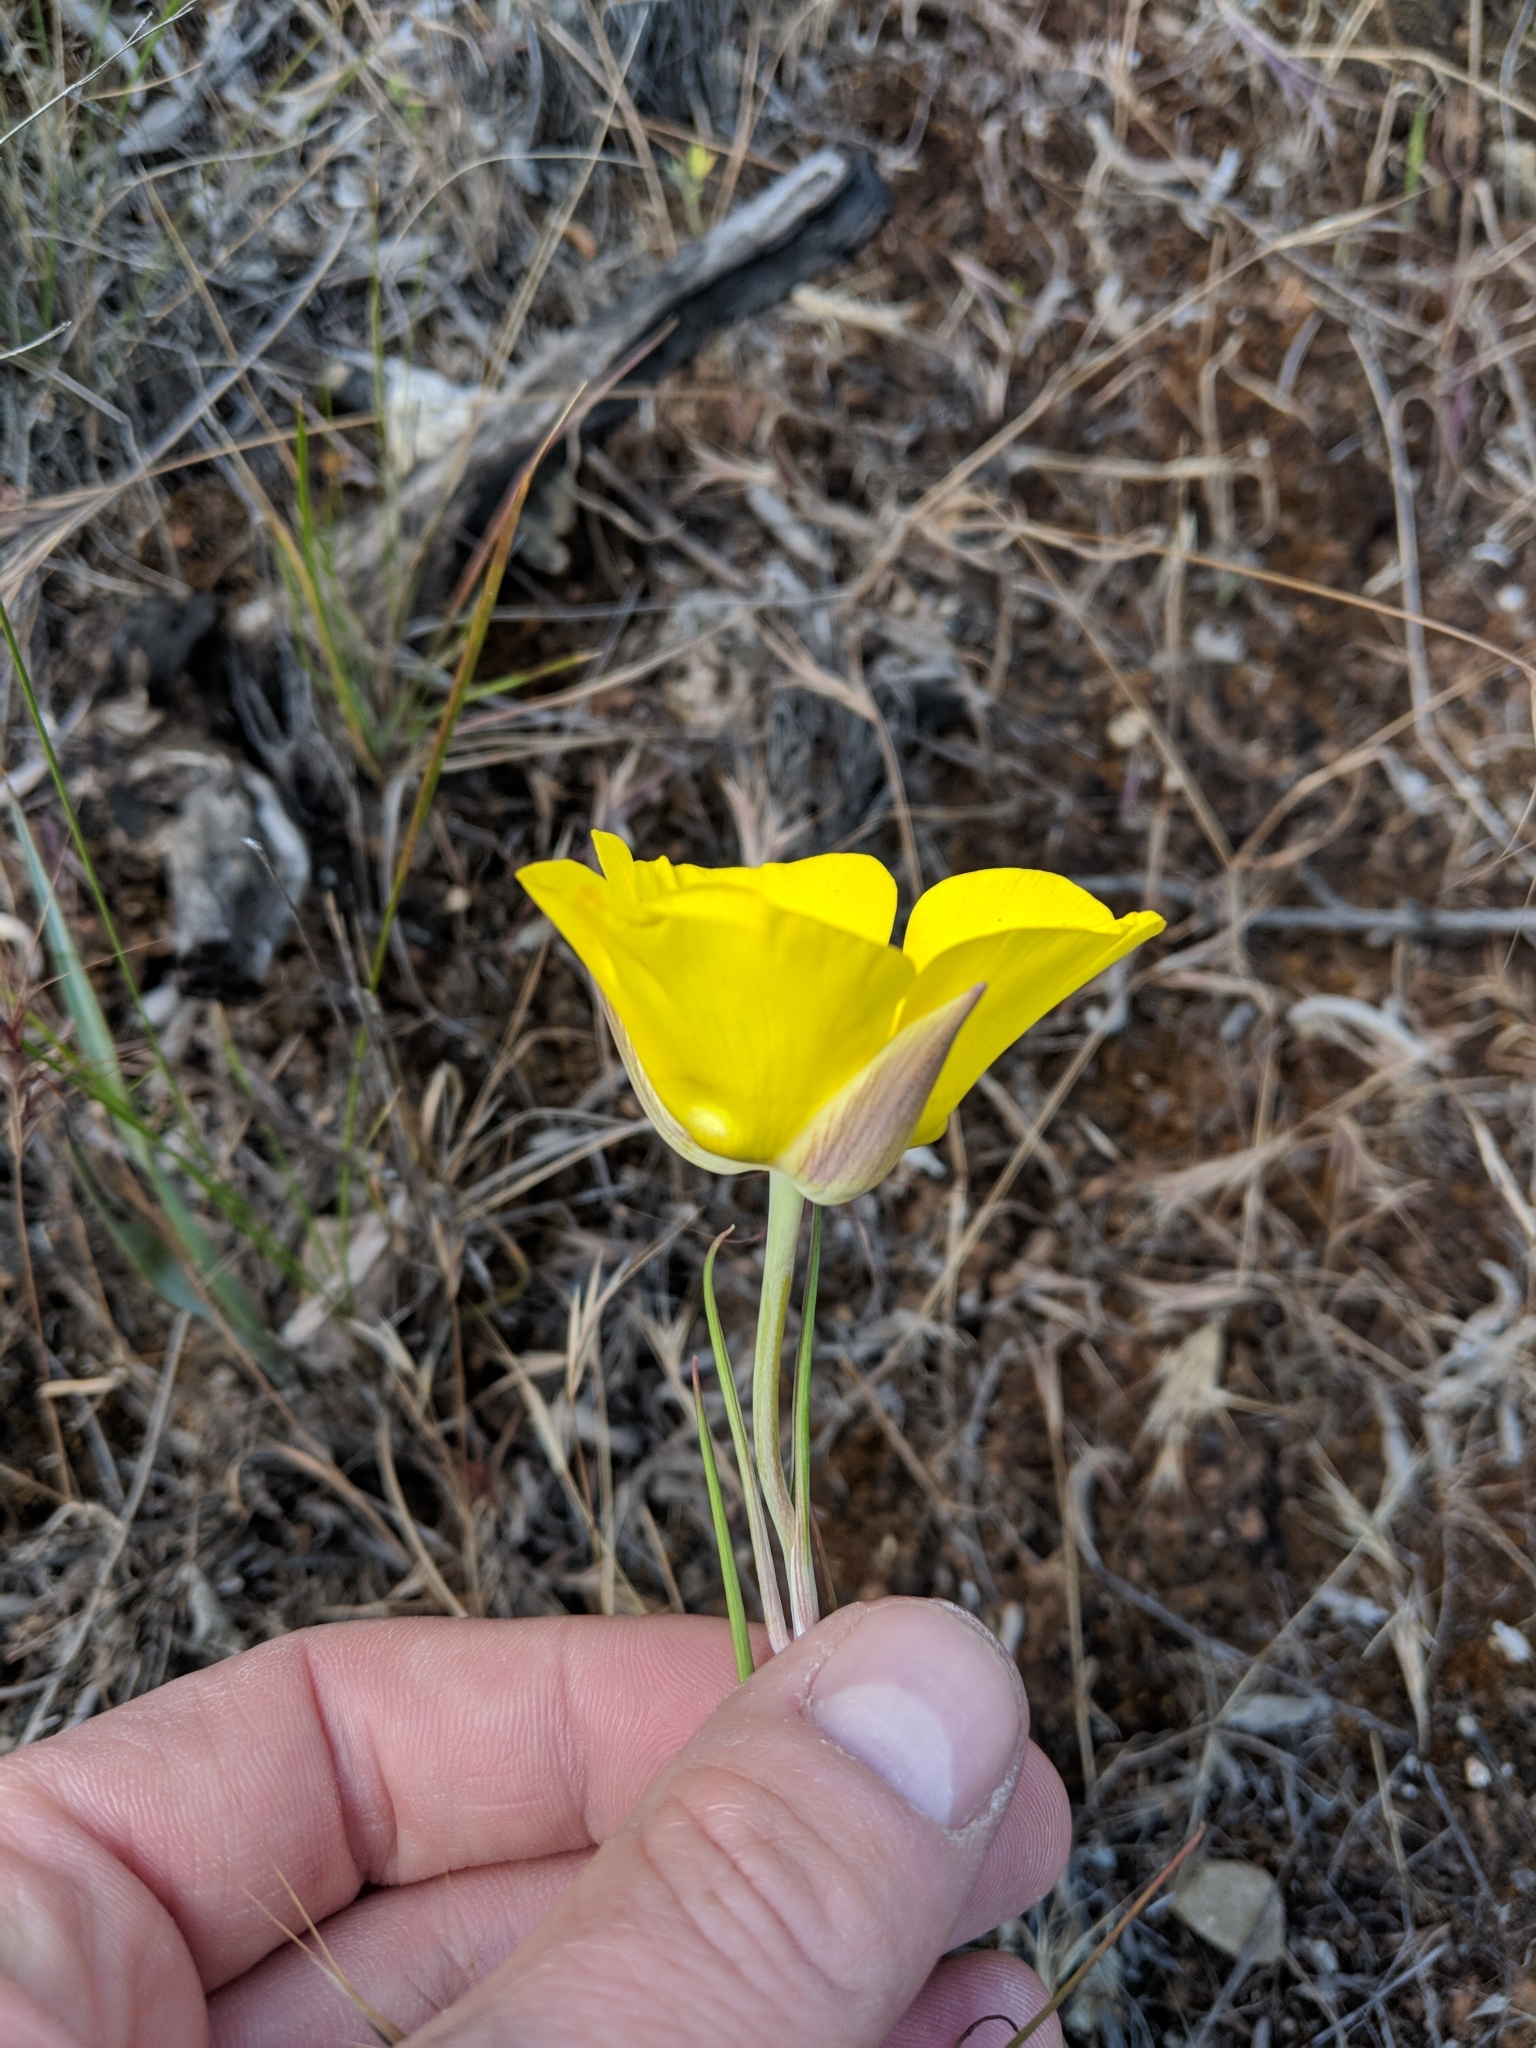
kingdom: Plantae
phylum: Tracheophyta
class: Liliopsida
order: Liliales
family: Liliaceae
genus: Calochortus
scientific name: Calochortus clavatus
